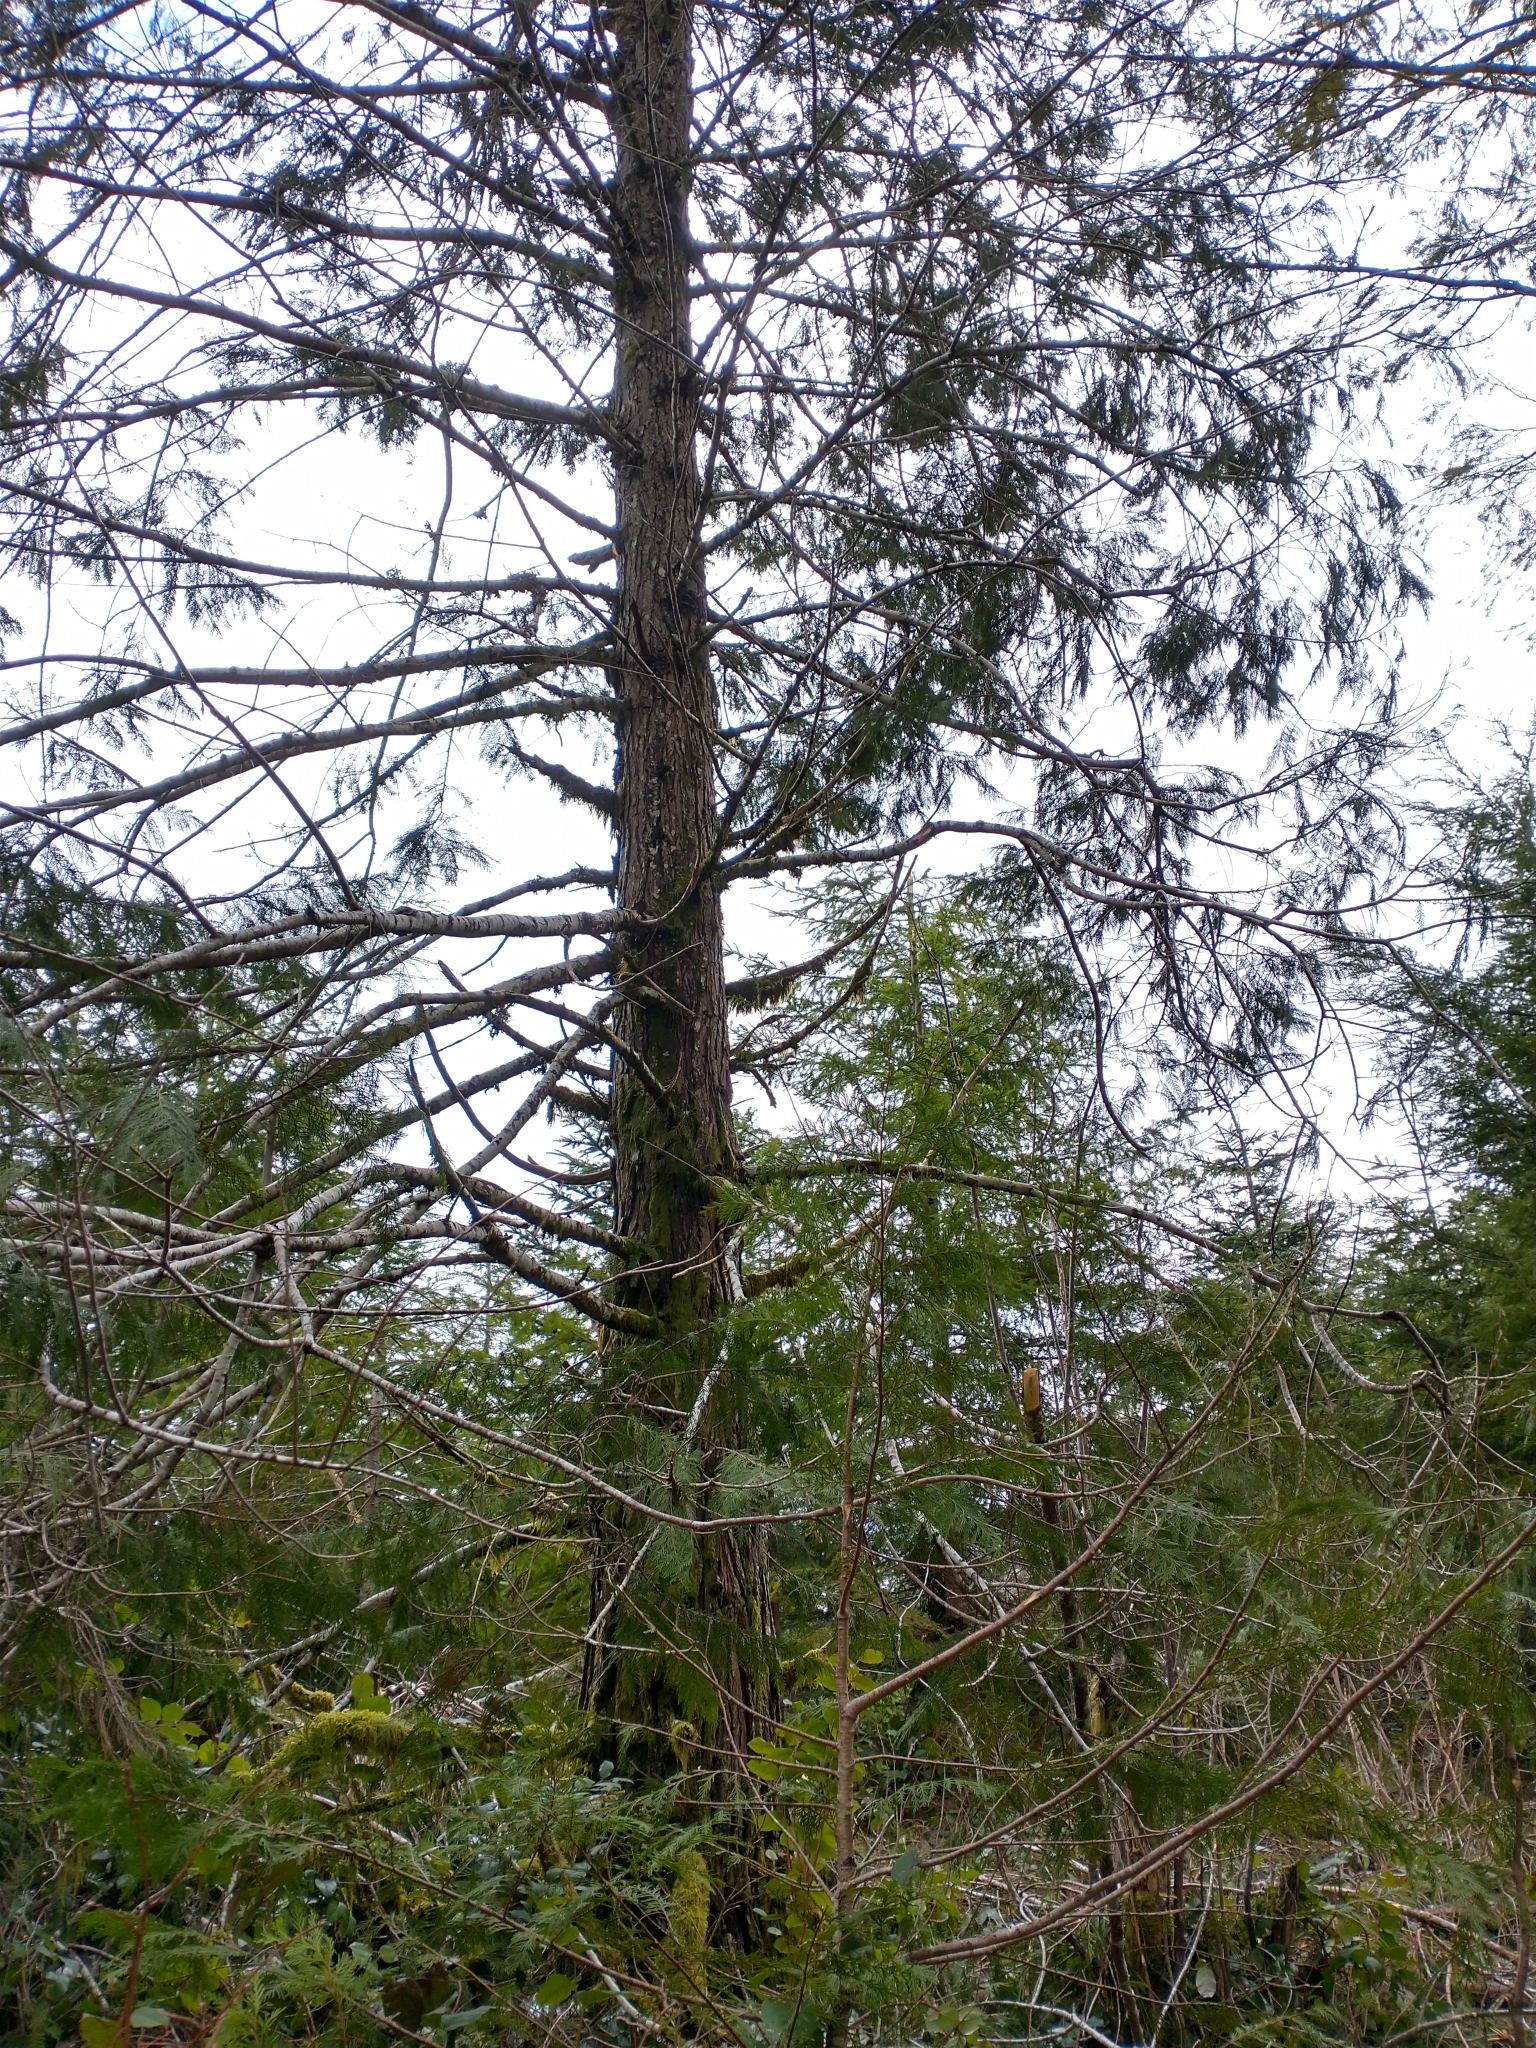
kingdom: Plantae
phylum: Tracheophyta
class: Pinopsida
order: Pinales
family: Cupressaceae
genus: Chamaecyparis
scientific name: Chamaecyparis lawsoniana
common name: Lawson's cypress
